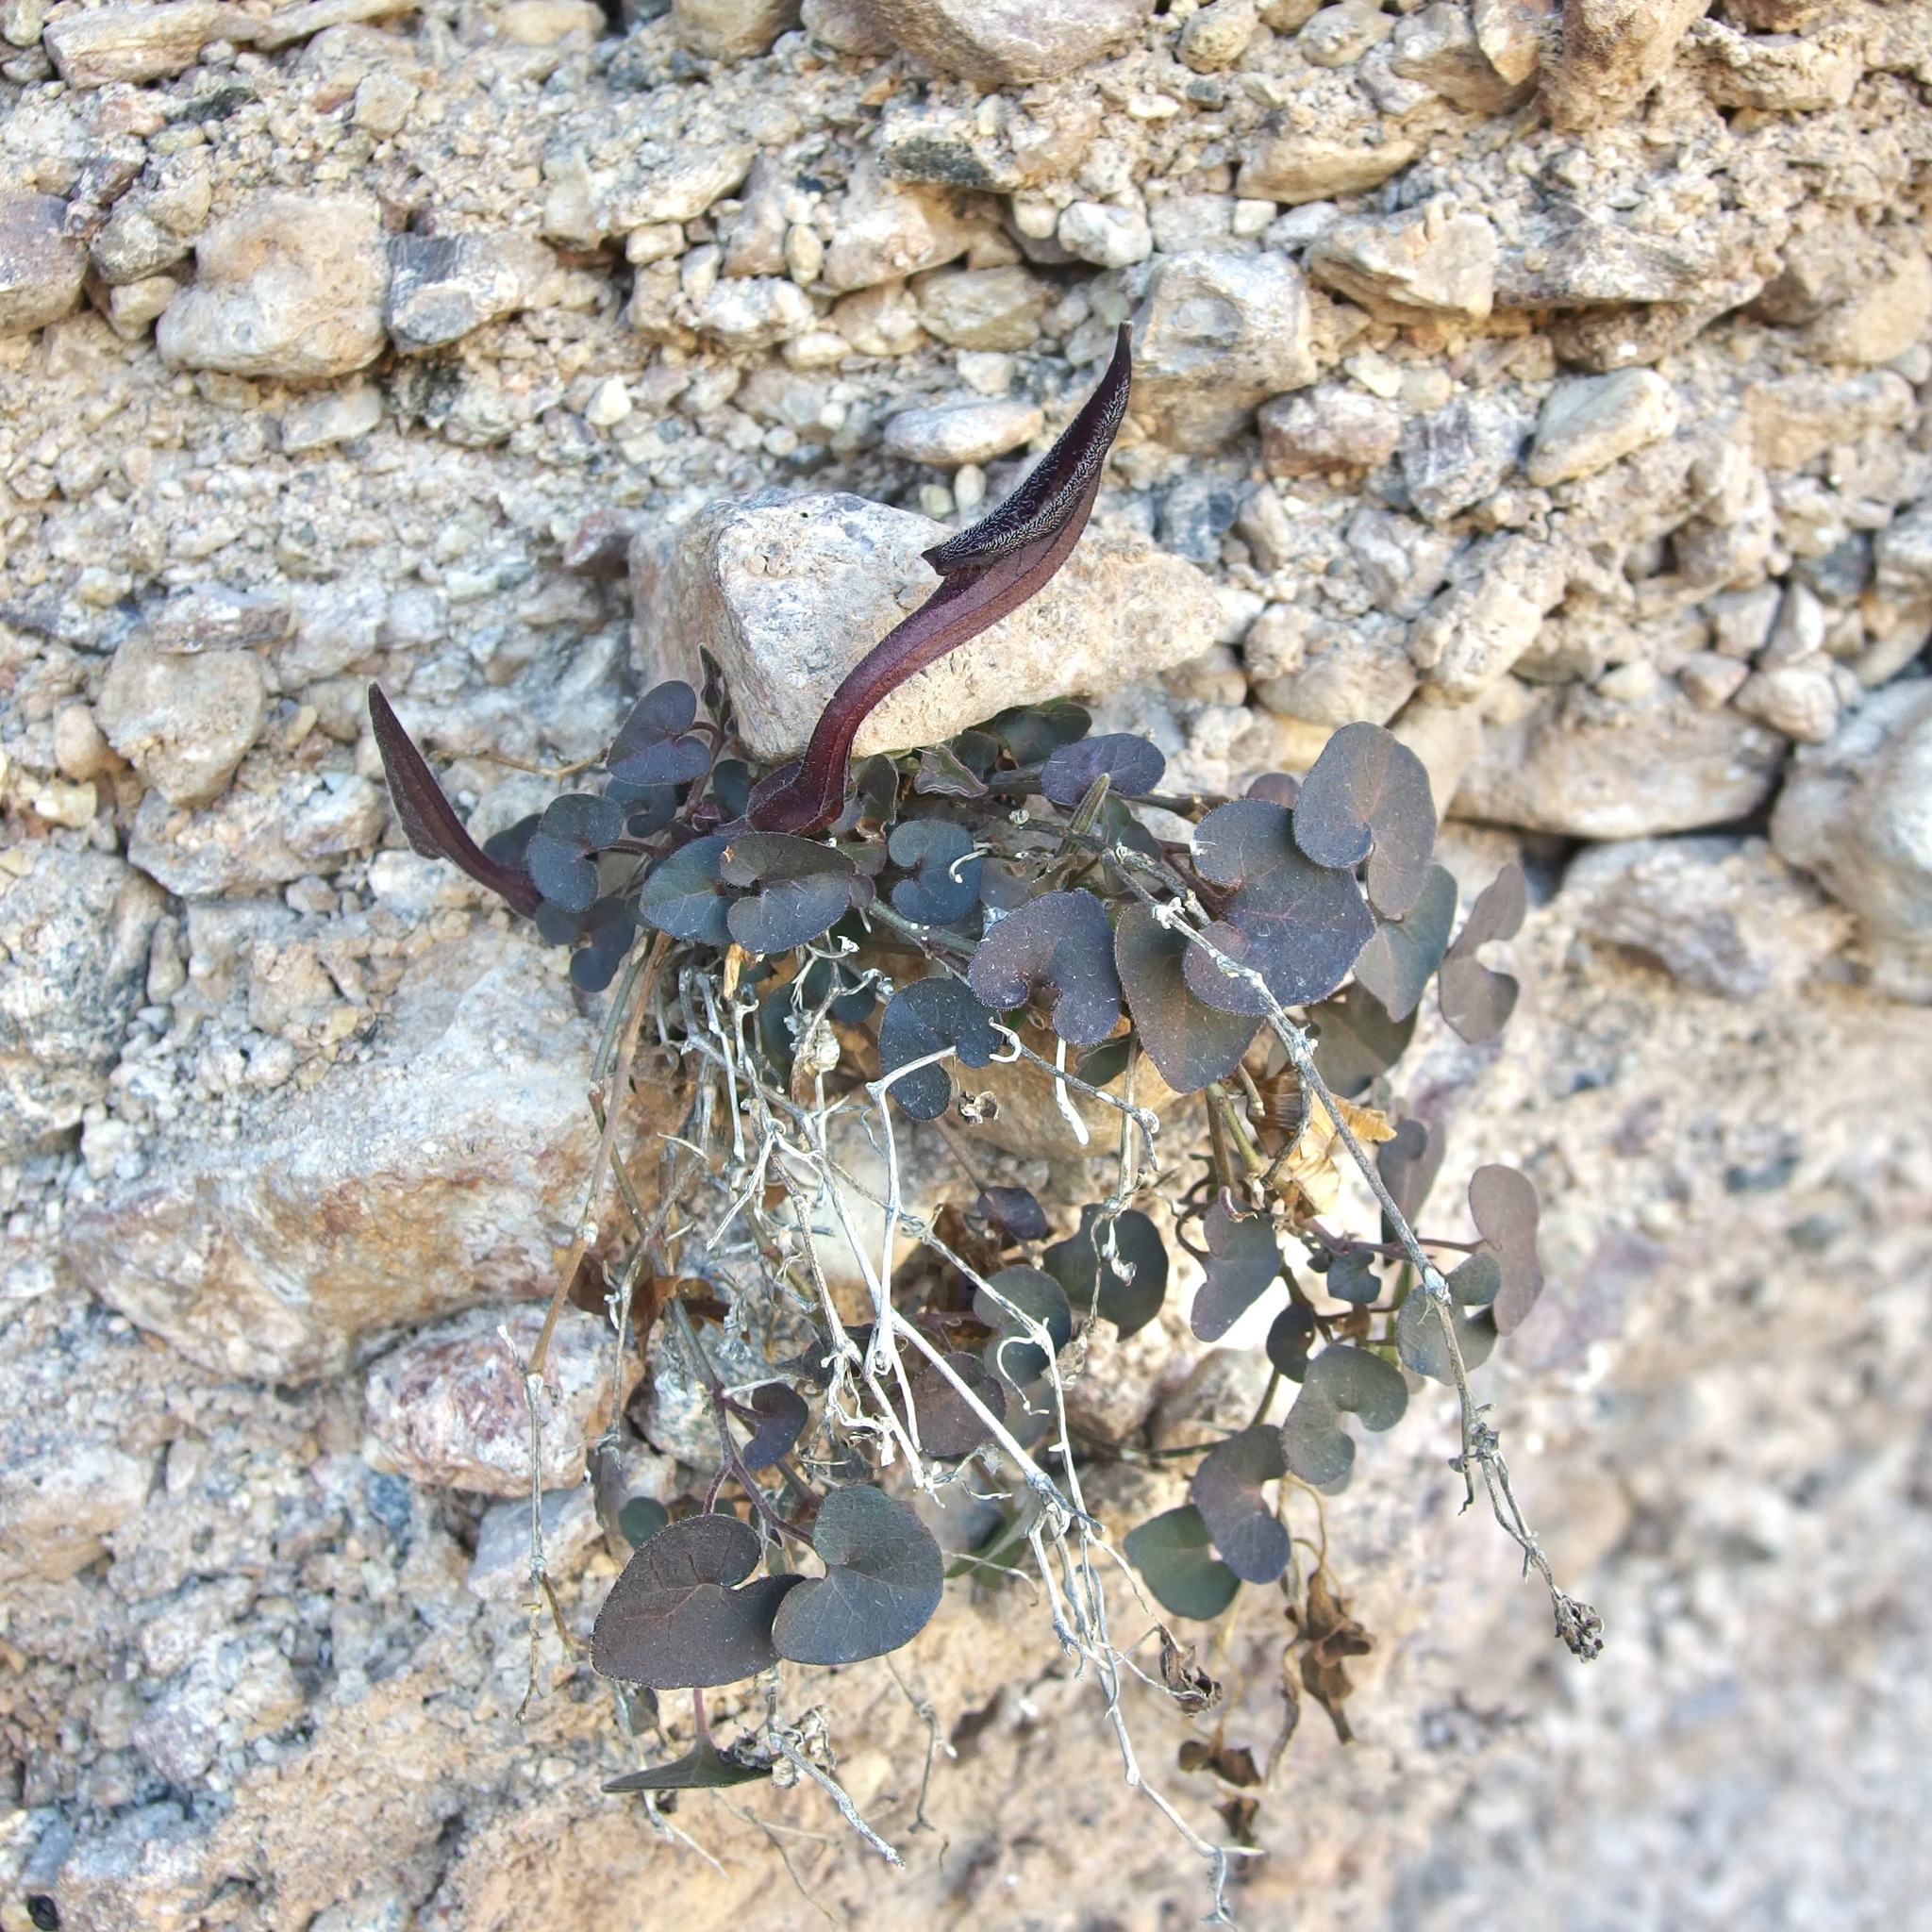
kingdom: Plantae
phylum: Tracheophyta
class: Magnoliopsida
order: Piperales
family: Aristolochiaceae
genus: Aristolochia
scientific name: Aristolochia watsonii
